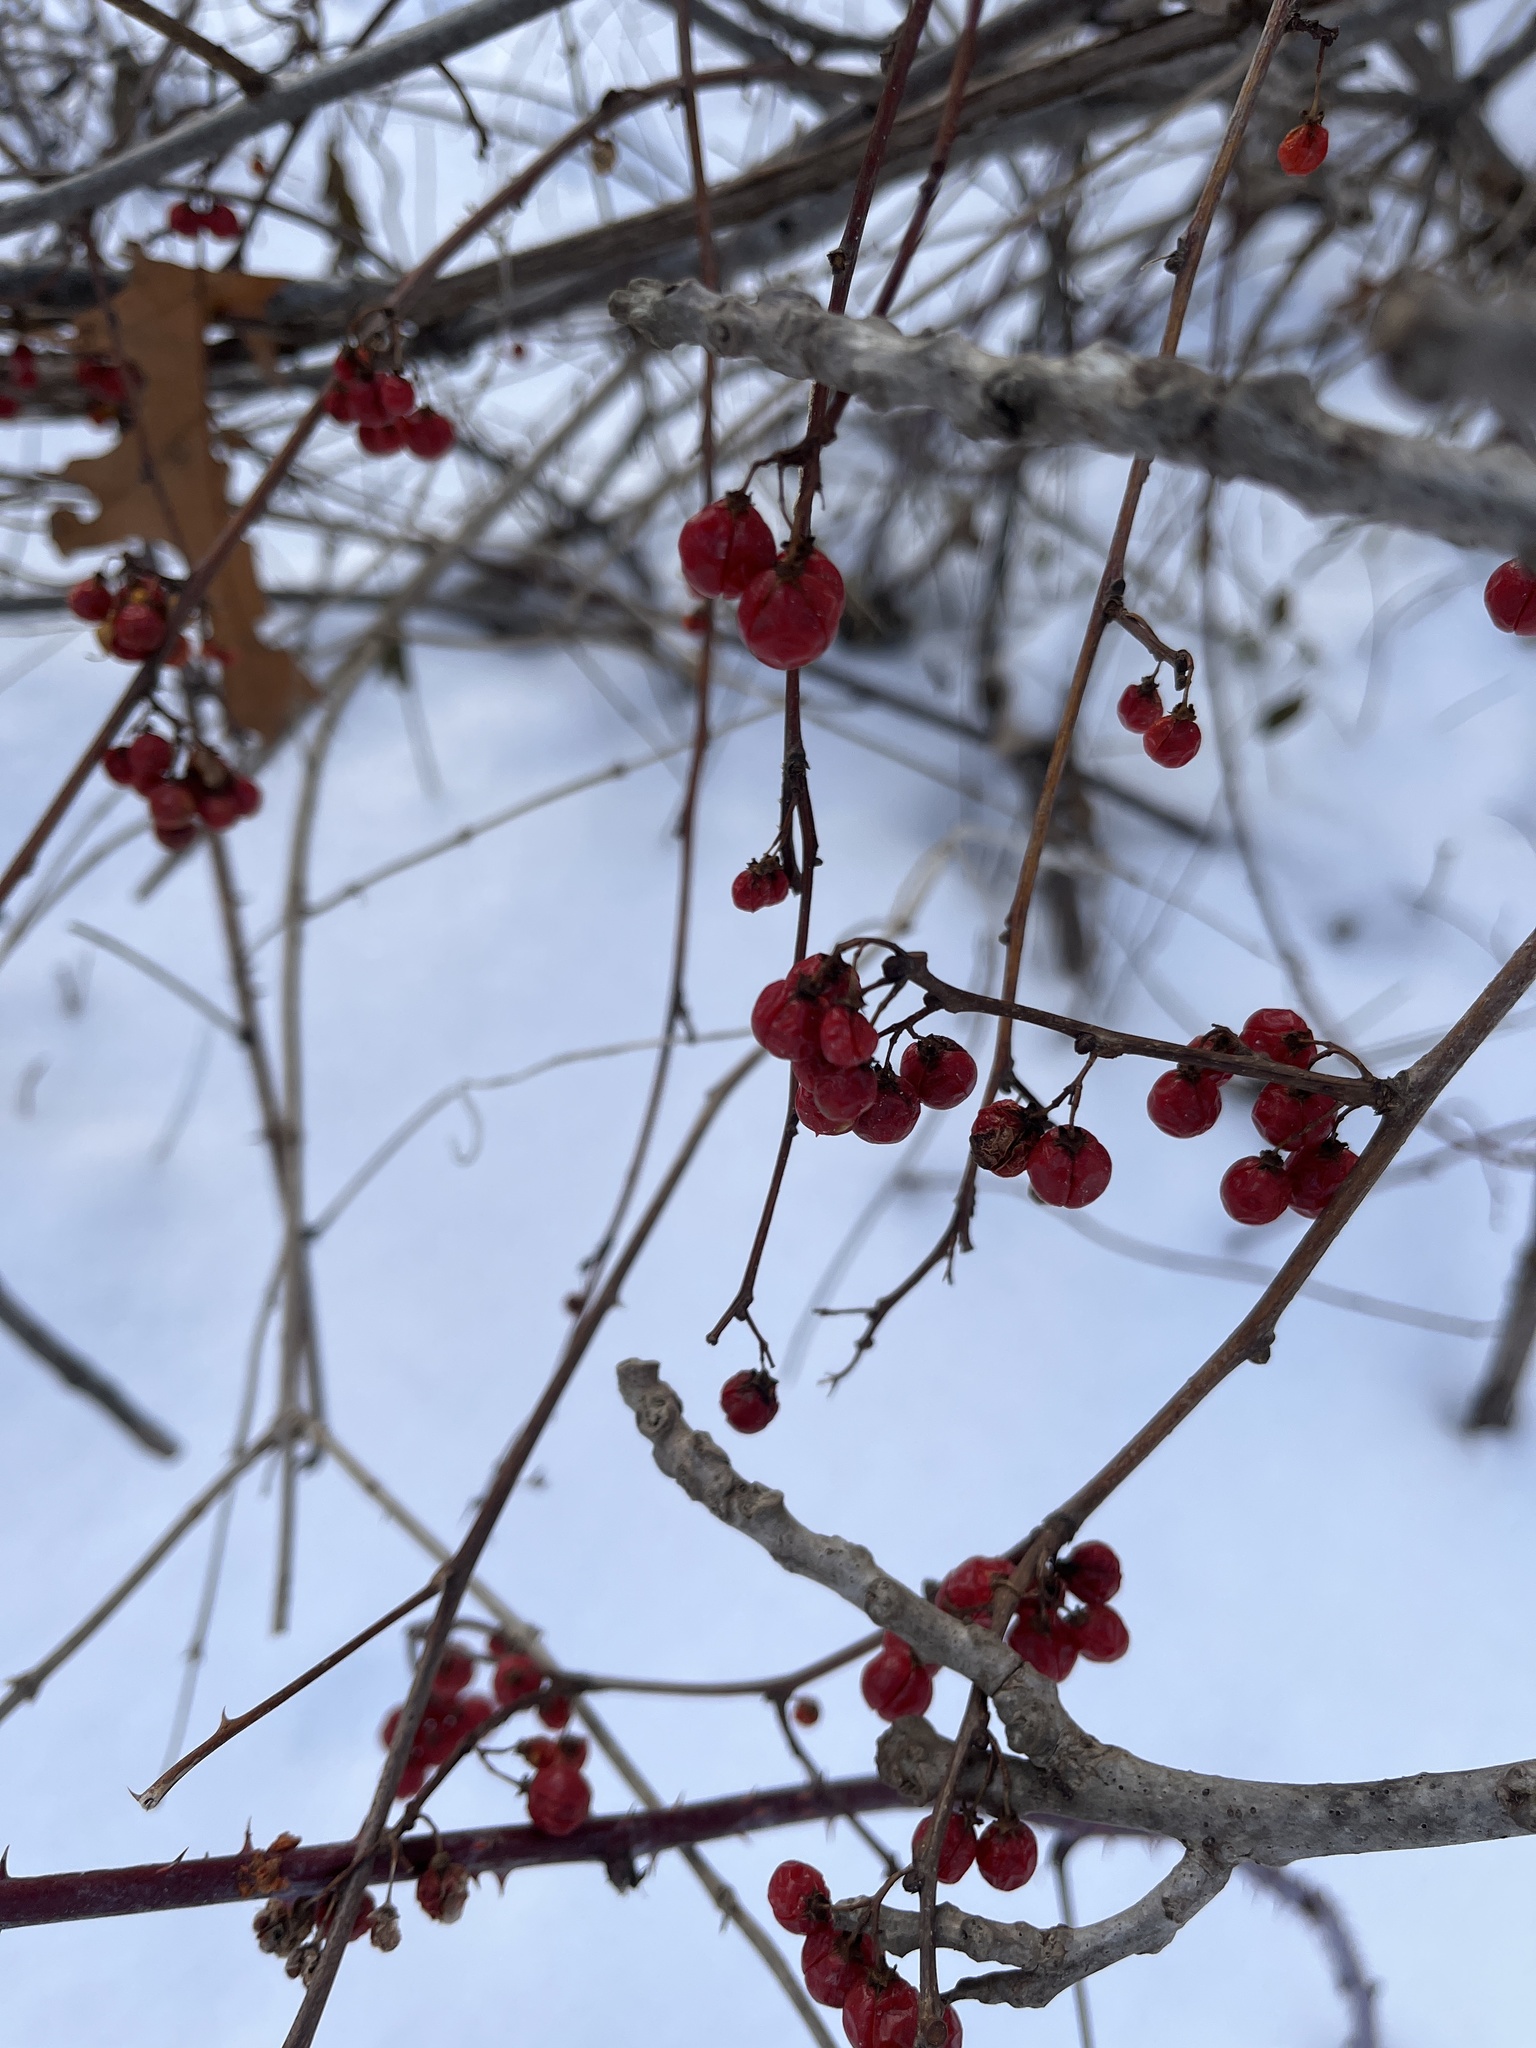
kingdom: Plantae
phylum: Tracheophyta
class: Magnoliopsida
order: Celastrales
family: Celastraceae
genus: Celastrus
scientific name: Celastrus orbiculatus
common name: Oriental bittersweet
